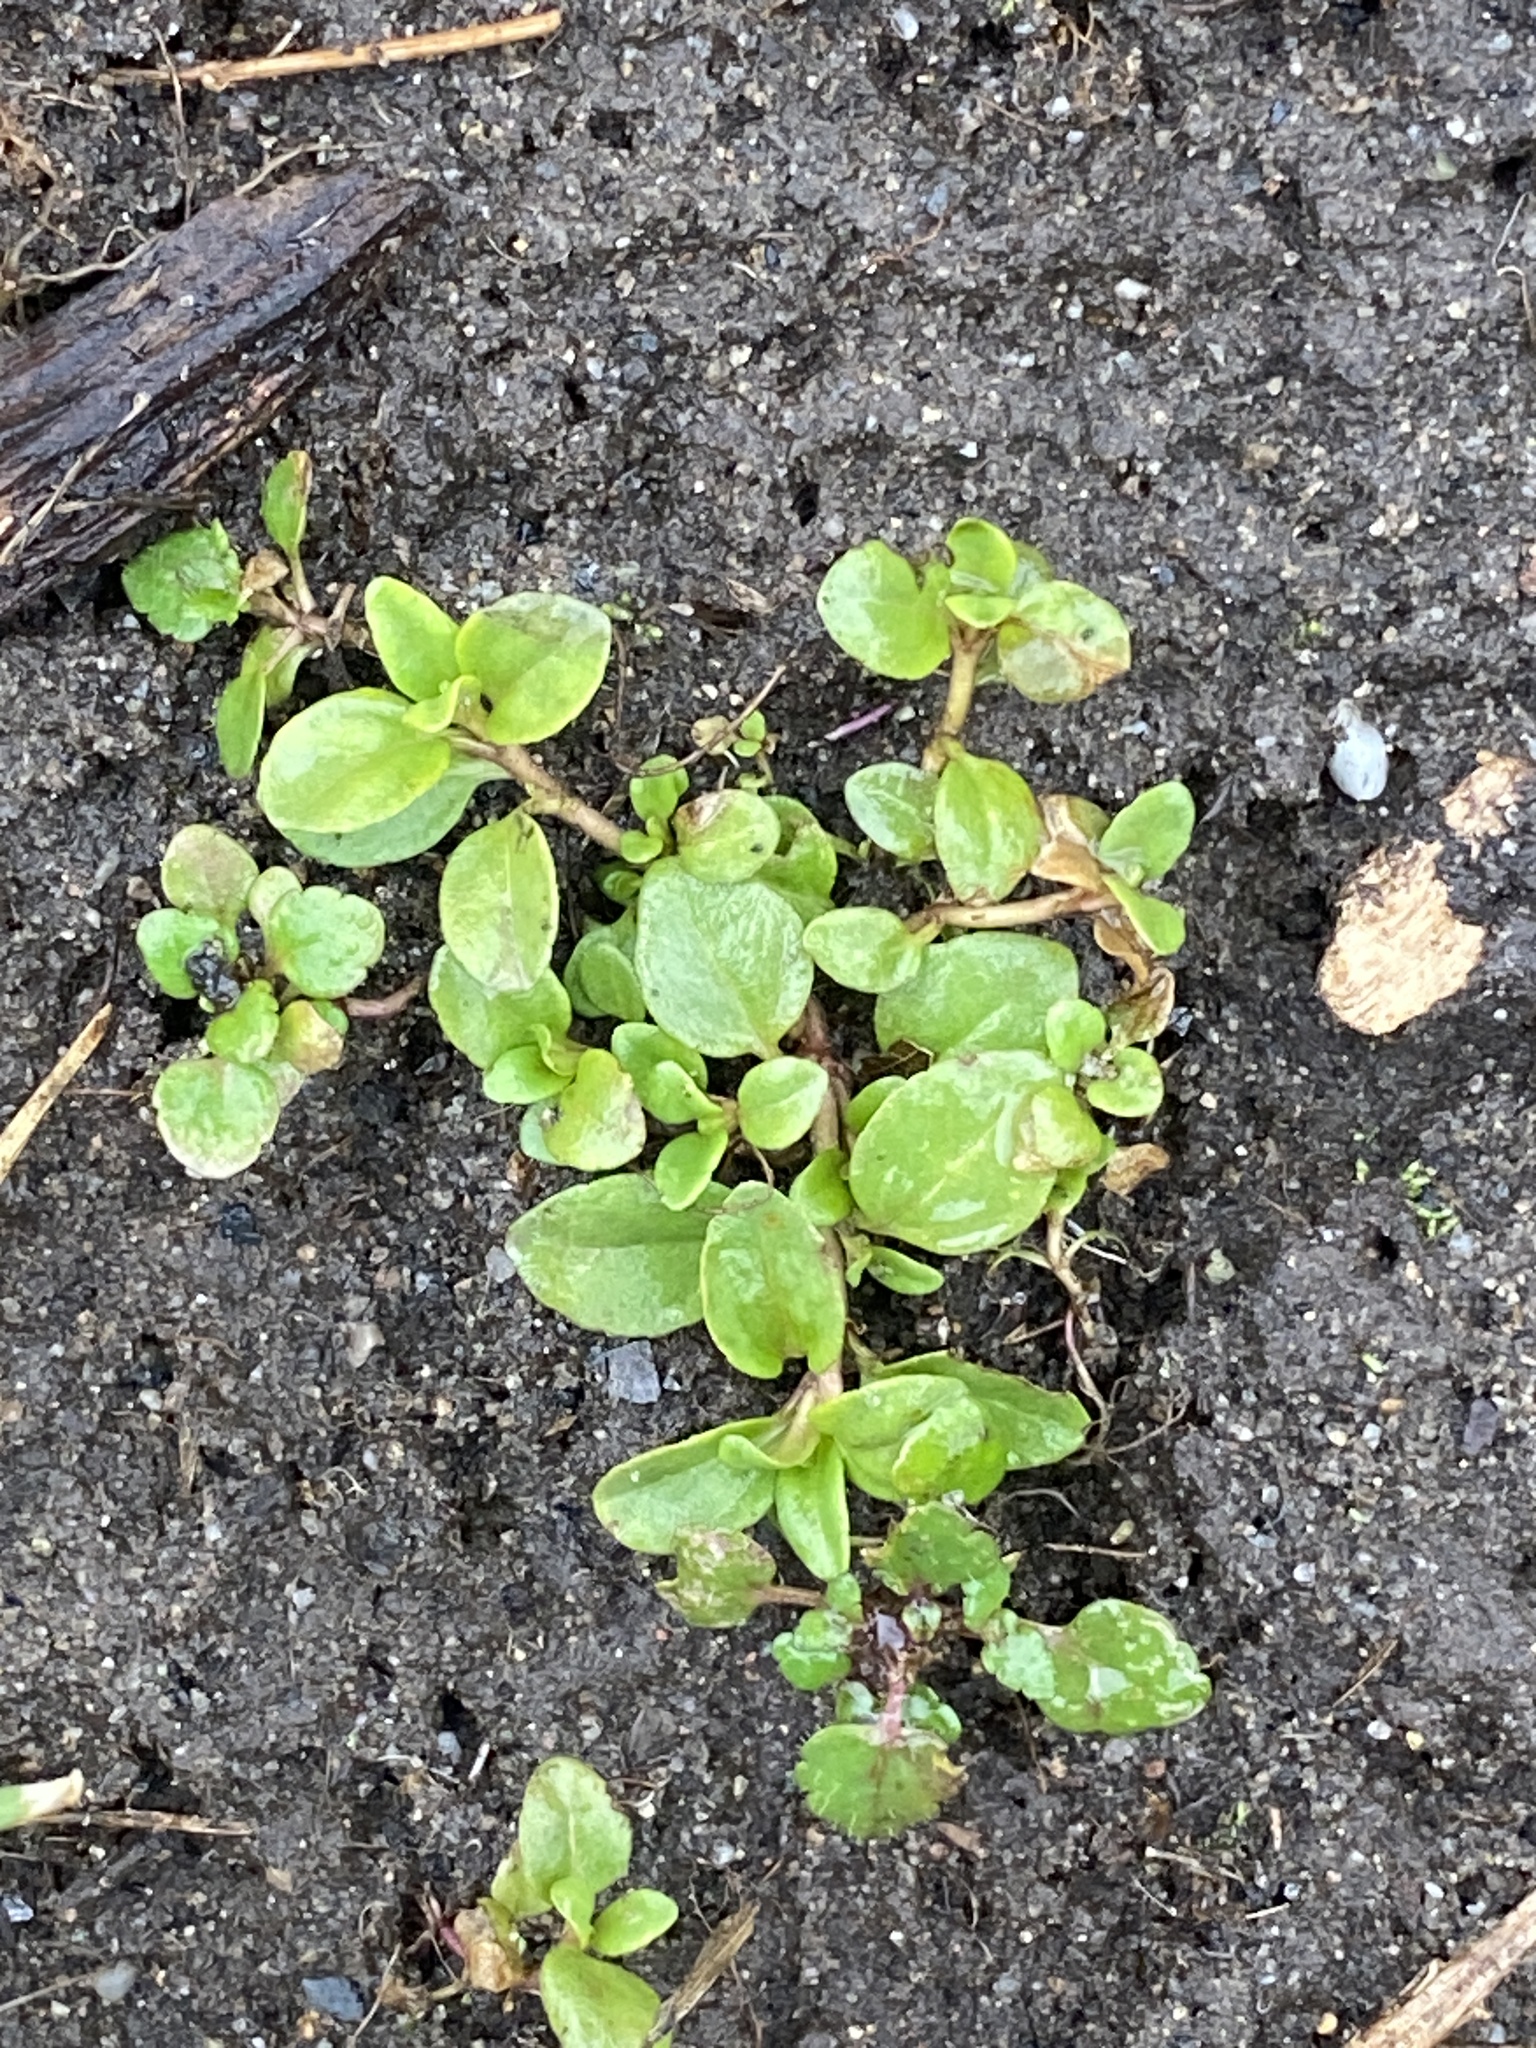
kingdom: Plantae
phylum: Tracheophyta
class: Magnoliopsida
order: Lamiales
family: Plantaginaceae
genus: Veronica
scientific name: Veronica serpyllifolia
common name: Thyme-leaved speedwell
